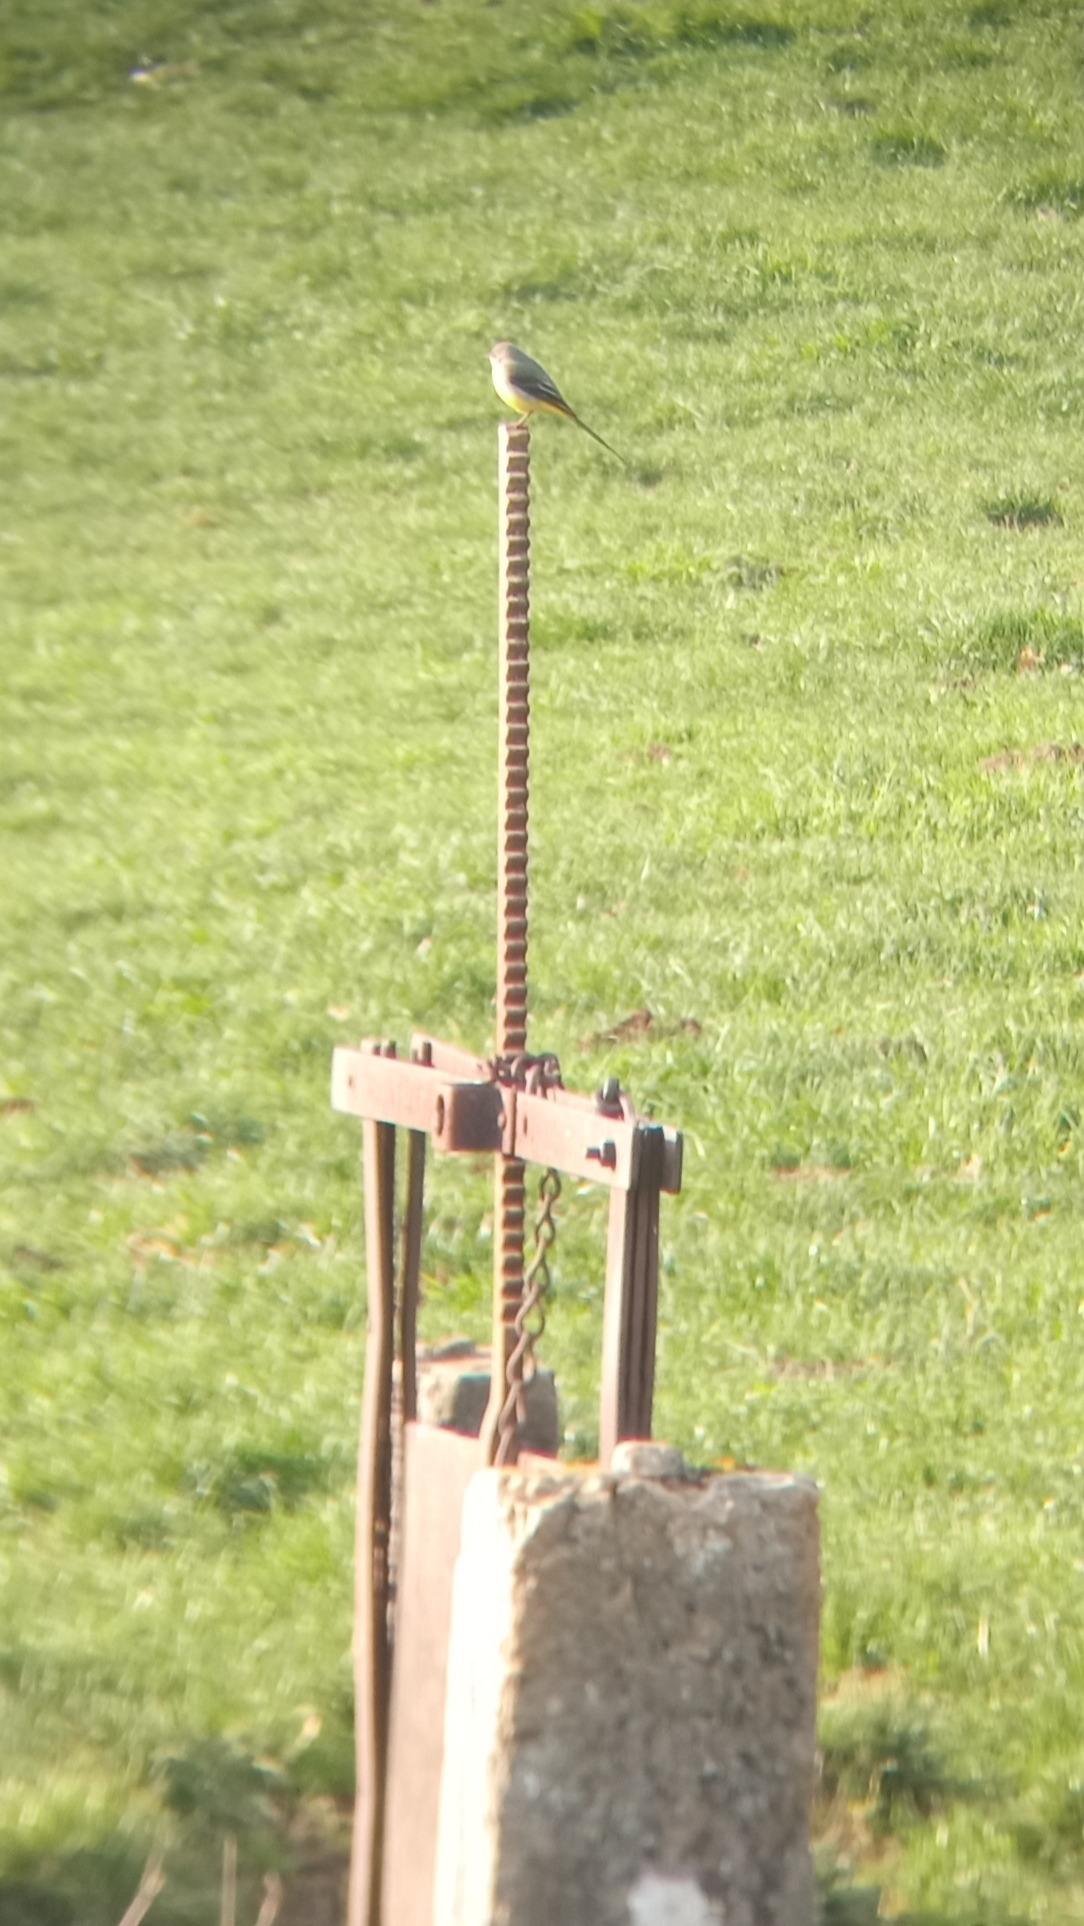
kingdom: Animalia
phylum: Chordata
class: Aves
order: Passeriformes
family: Motacillidae
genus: Motacilla
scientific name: Motacilla cinerea
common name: Grey wagtail
